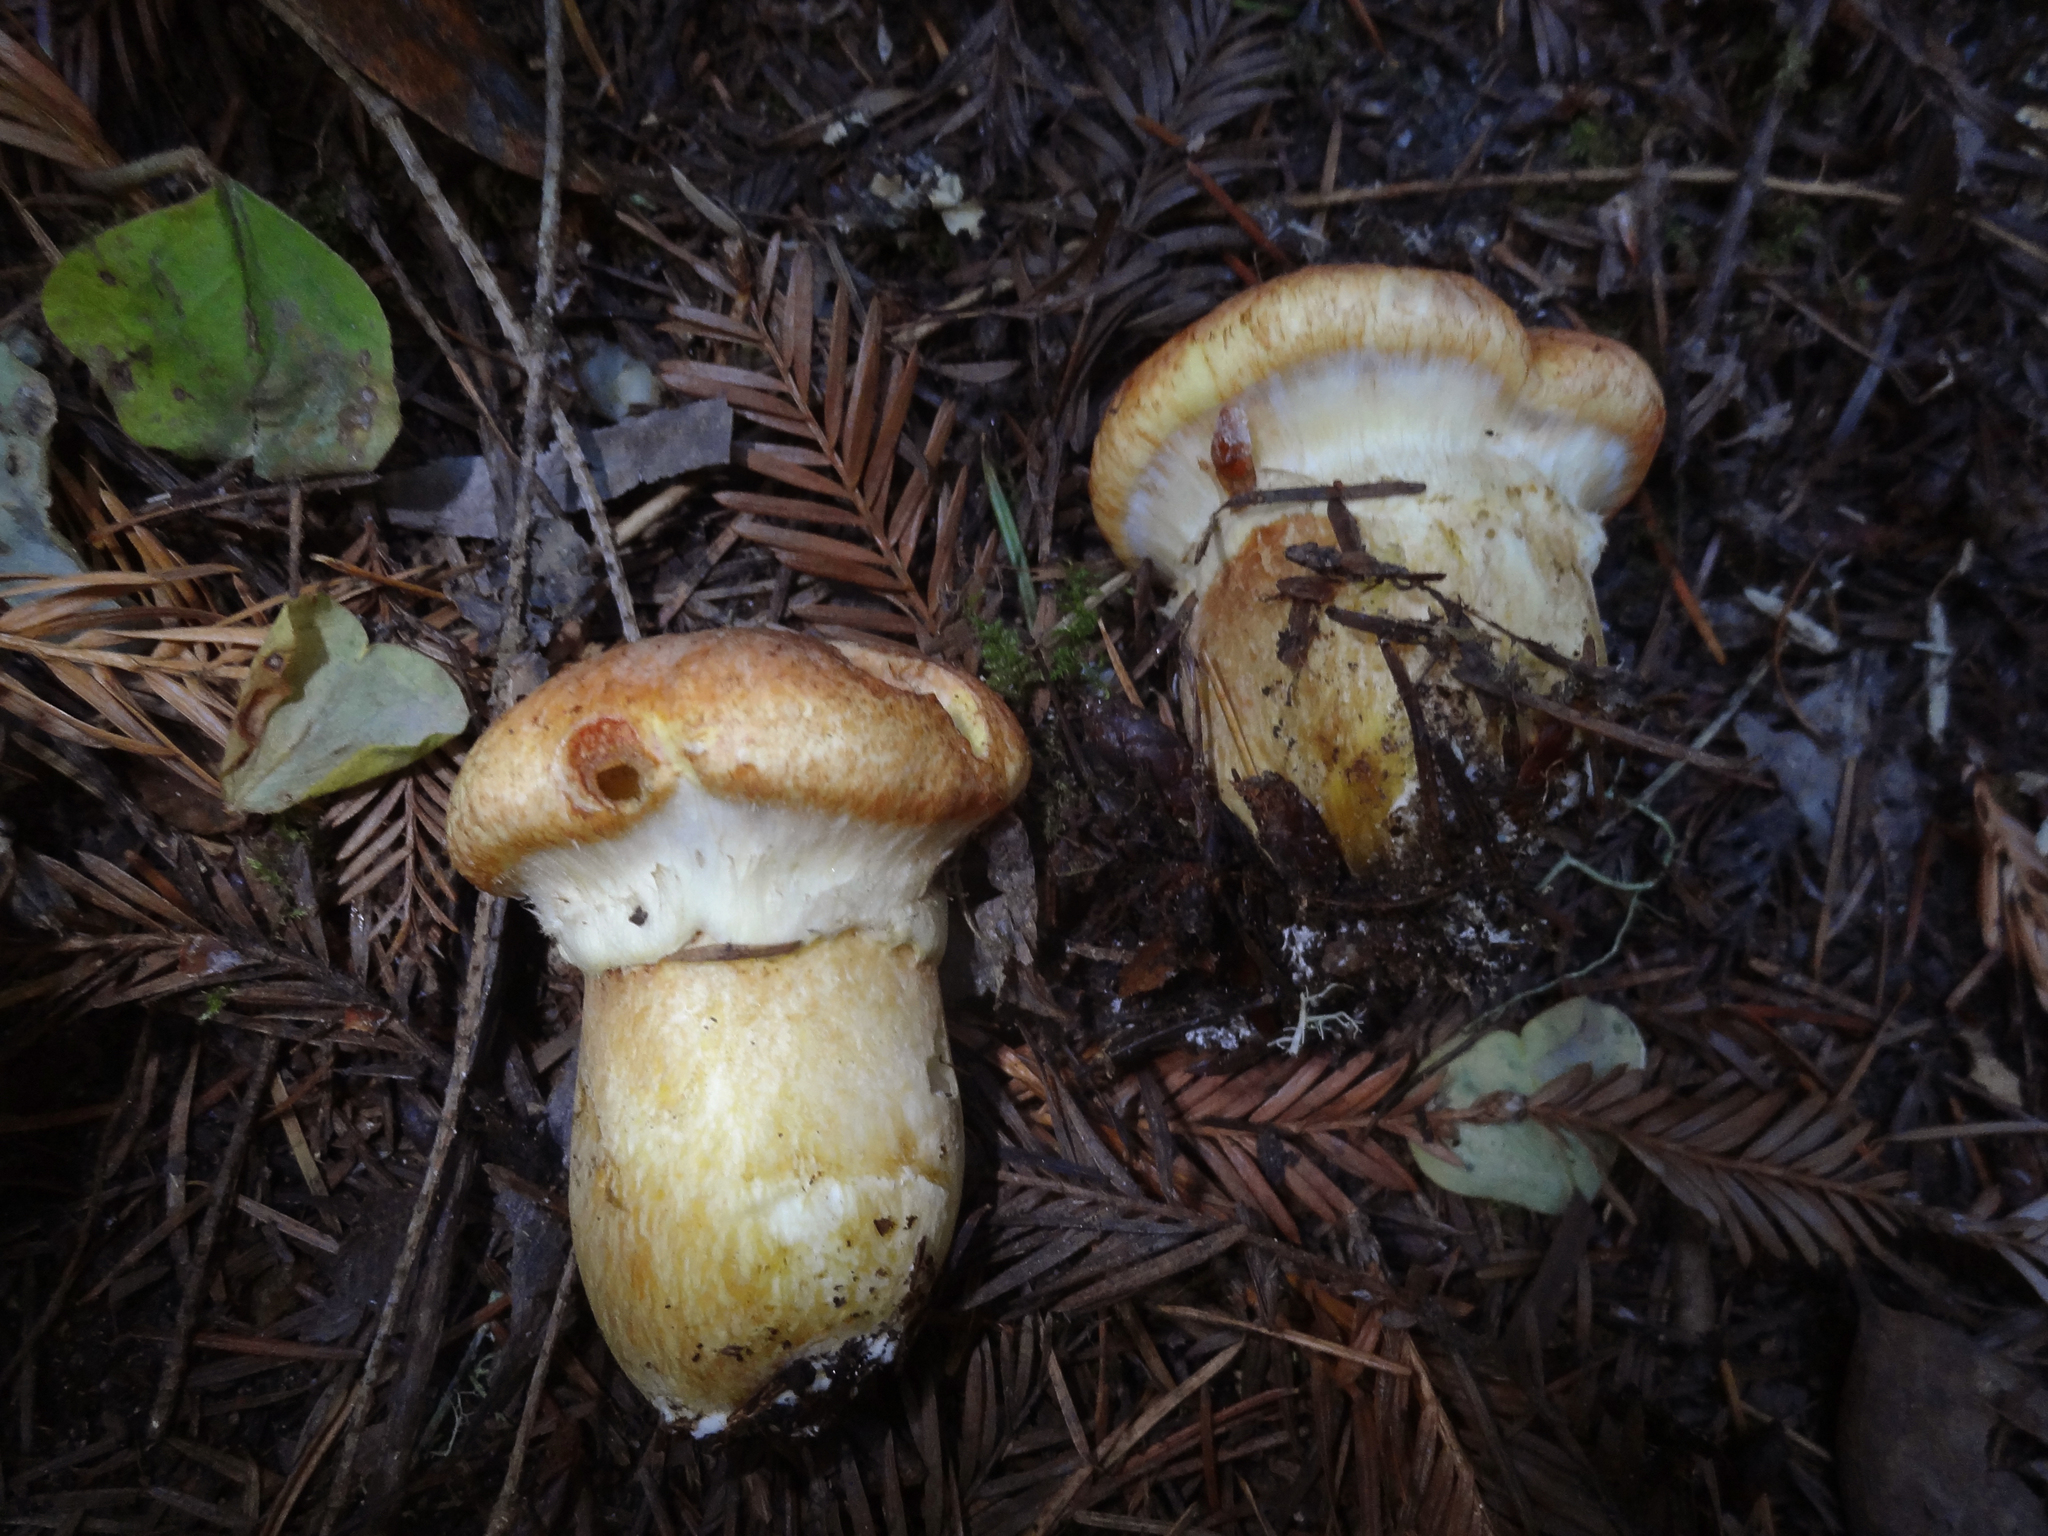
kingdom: Fungi
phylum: Basidiomycota
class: Agaricomycetes
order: Boletales
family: Suillaceae
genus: Suillus
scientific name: Suillus caerulescens
